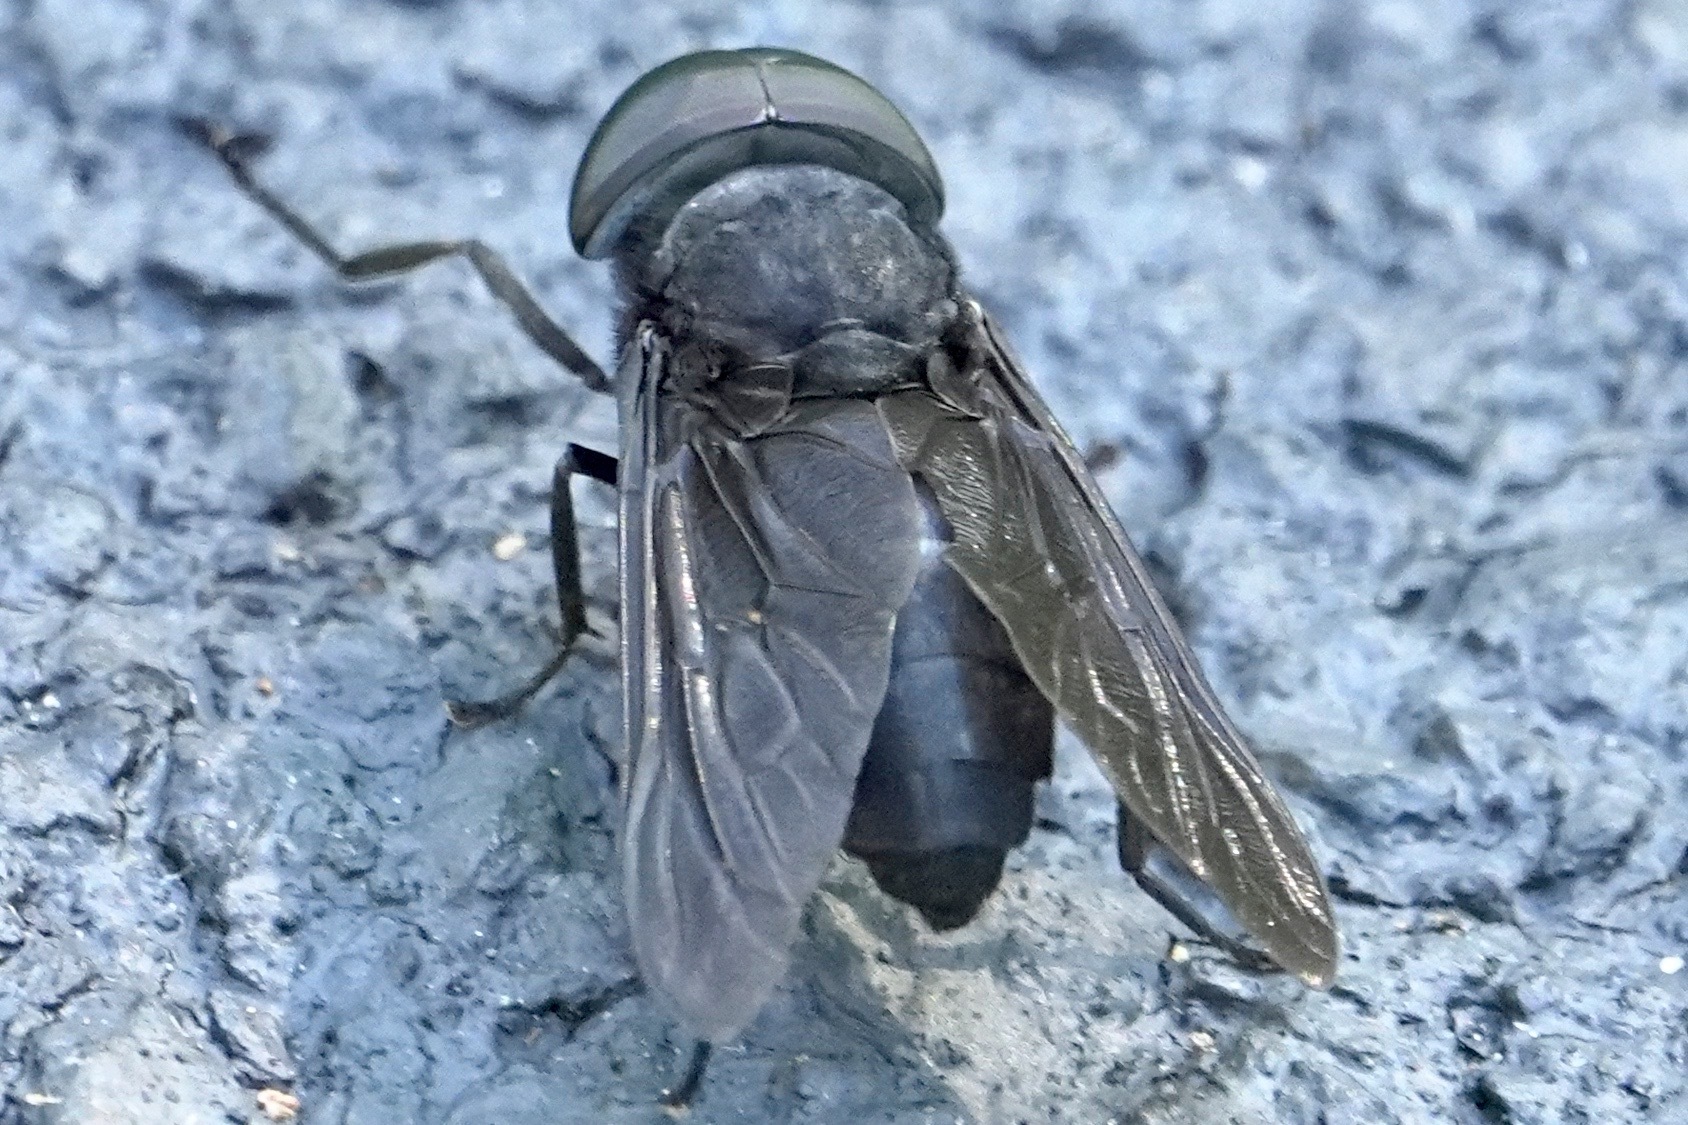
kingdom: Animalia
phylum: Arthropoda
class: Insecta
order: Diptera
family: Tabanidae
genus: Tabanus
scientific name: Tabanus atratus
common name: Black horse fly
